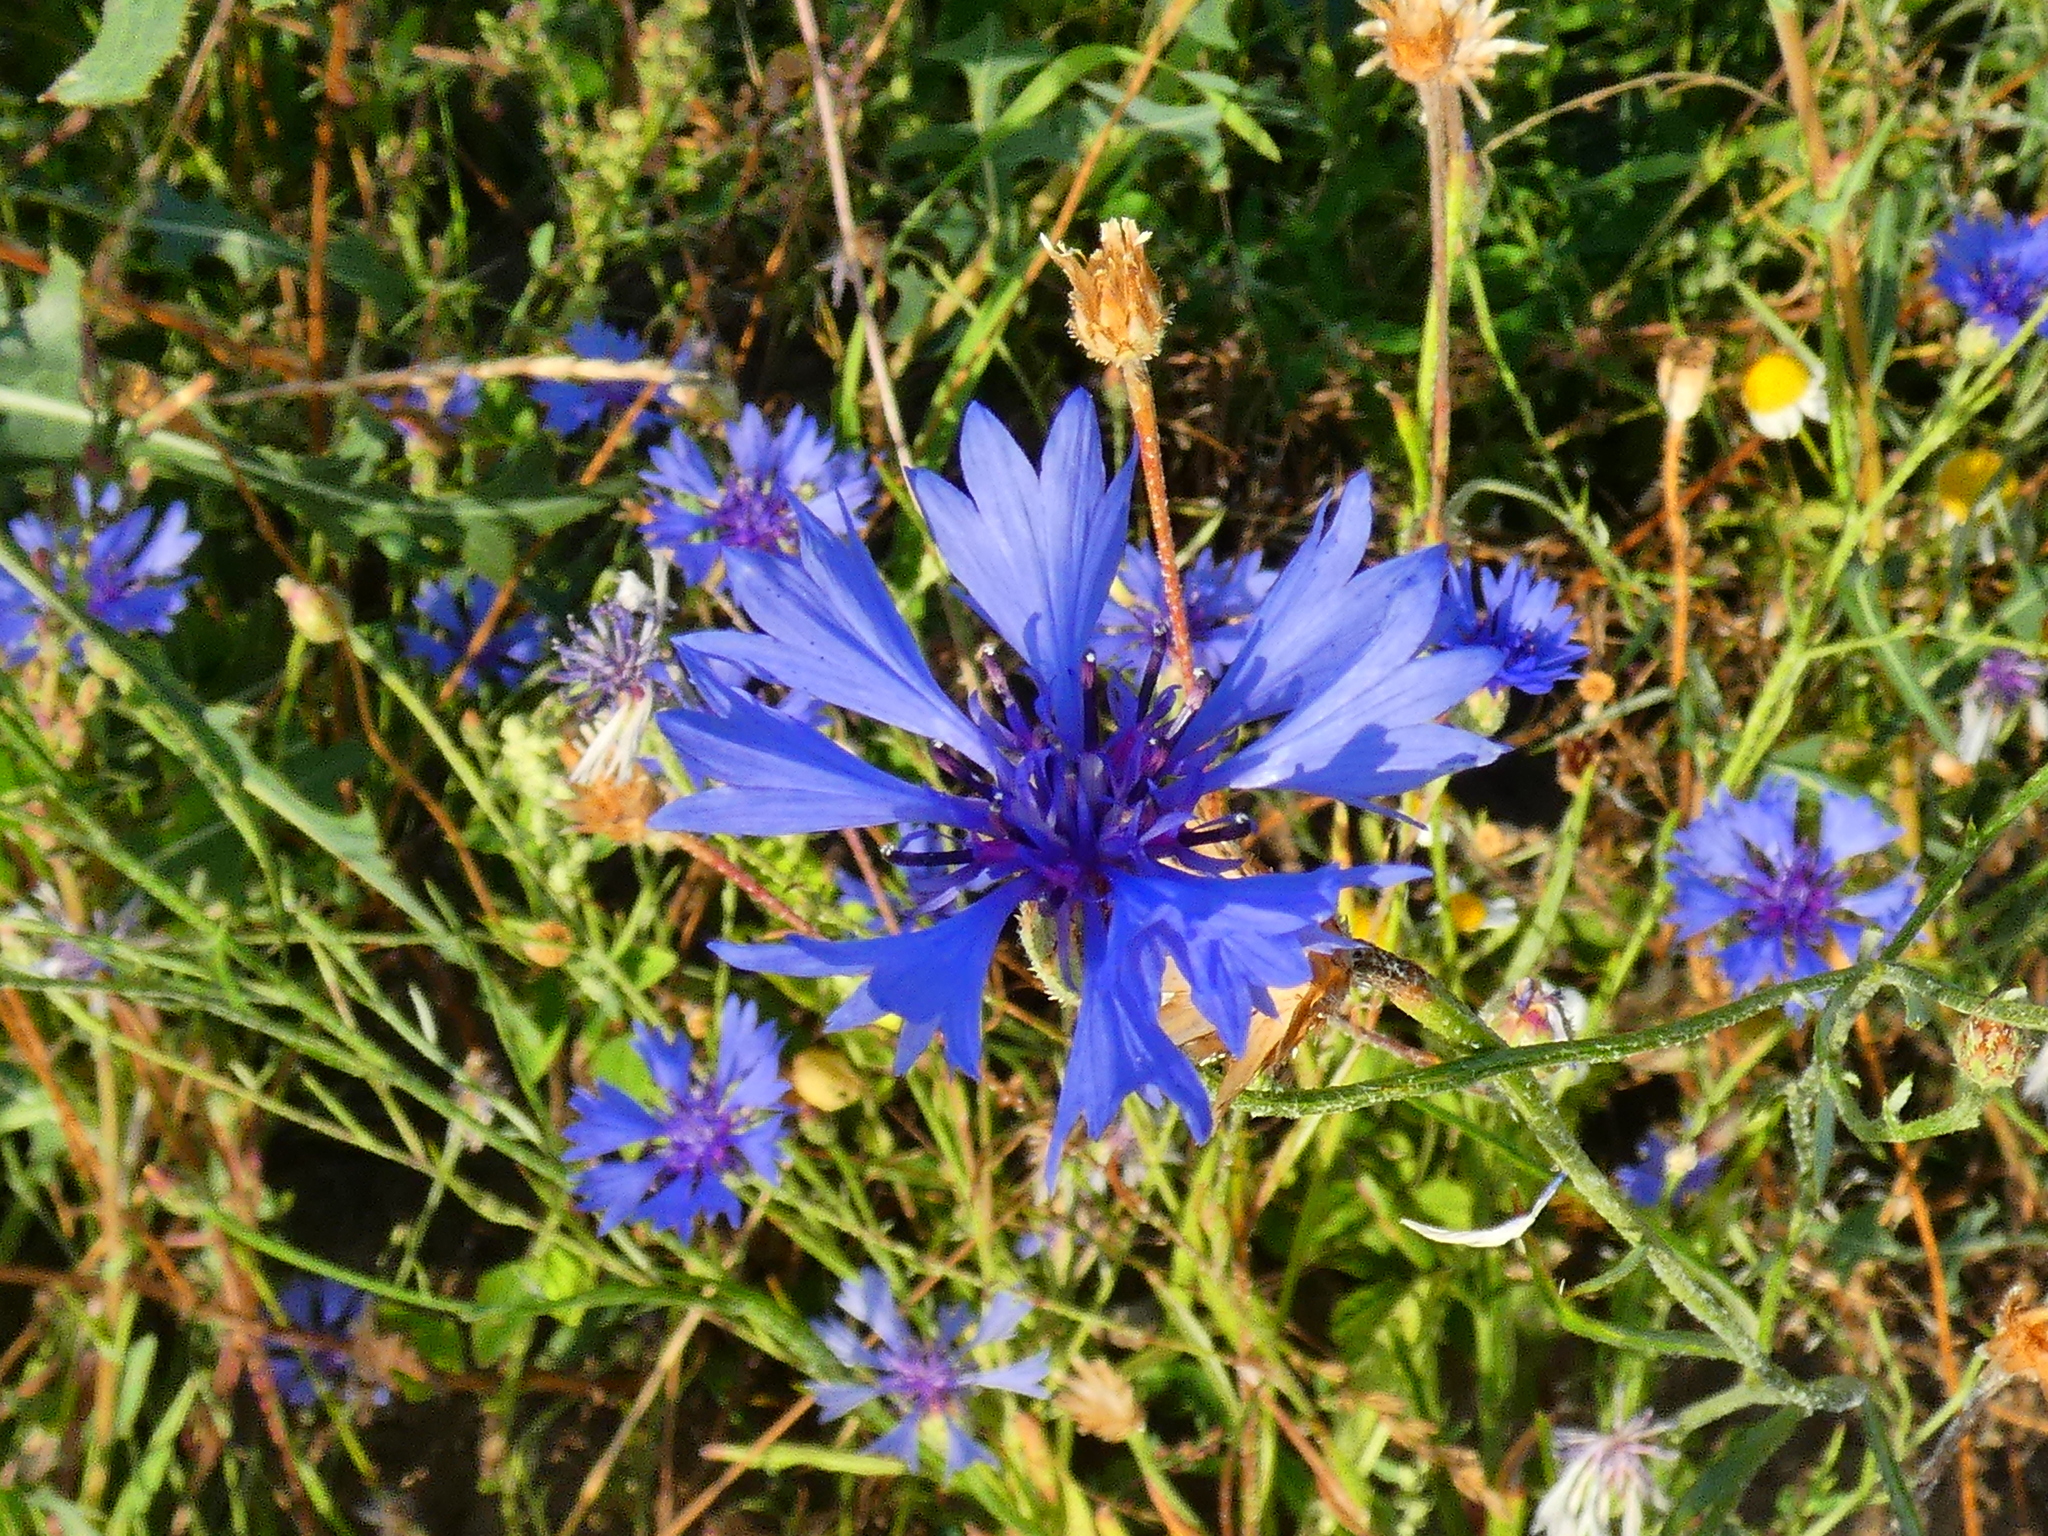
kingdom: Plantae
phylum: Tracheophyta
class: Magnoliopsida
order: Asterales
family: Asteraceae
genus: Centaurea
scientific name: Centaurea cyanus
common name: Cornflower
